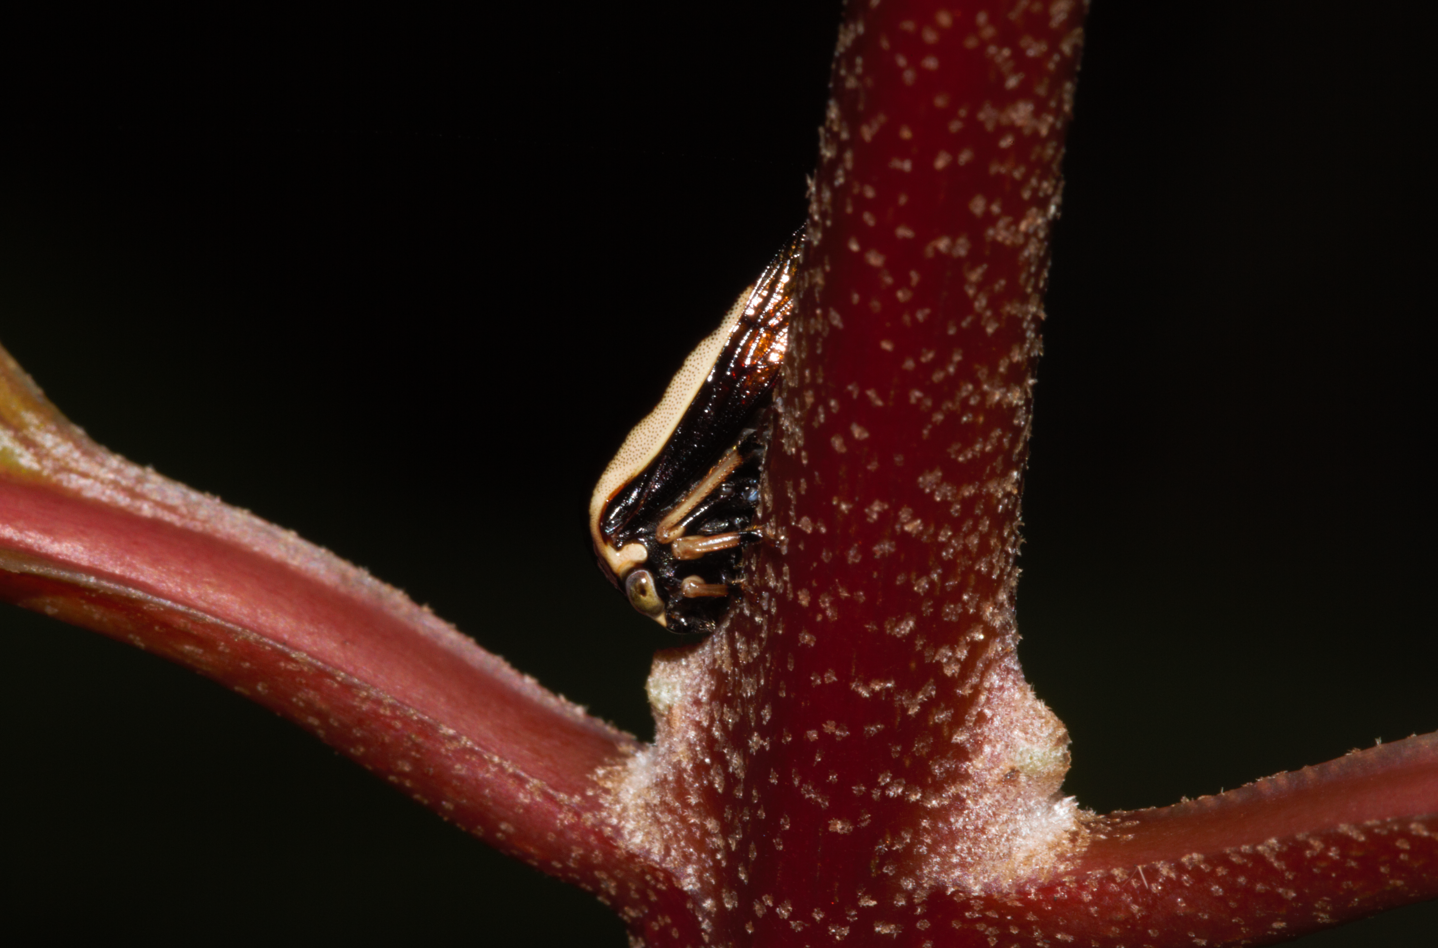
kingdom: Animalia
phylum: Arthropoda
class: Insecta
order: Hemiptera
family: Membracidae
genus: Darnis
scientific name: Darnis lateralis
